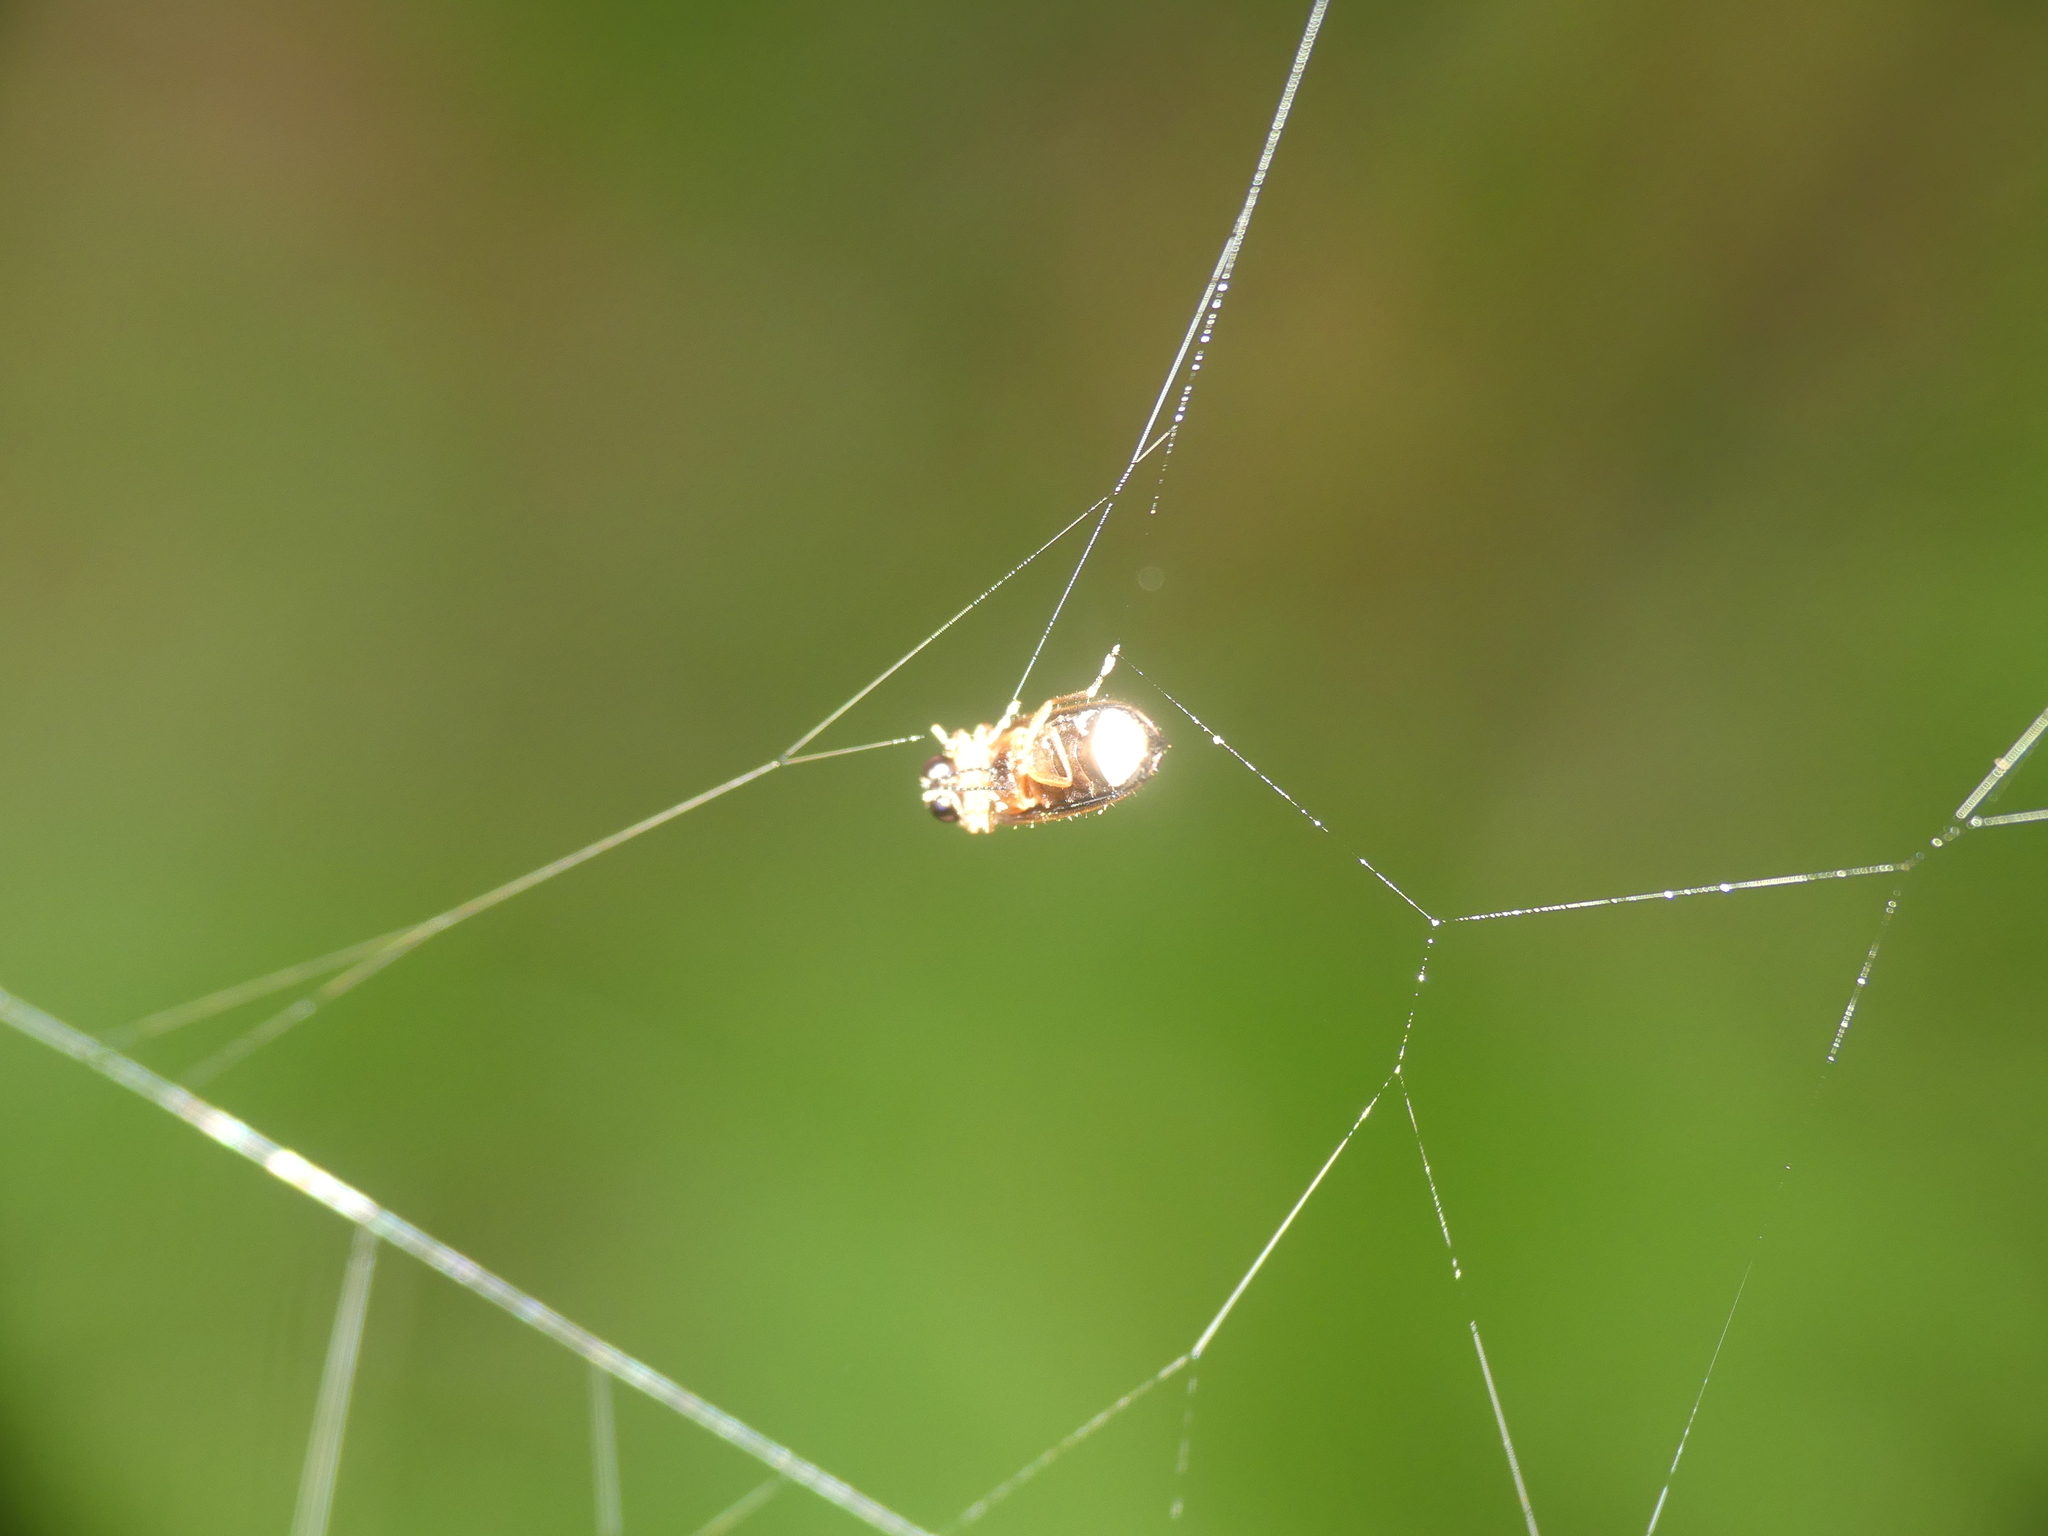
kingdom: Animalia
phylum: Arthropoda
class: Insecta
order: Coleoptera
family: Lampyridae
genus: Lamprohiza
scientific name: Lamprohiza splendidula
